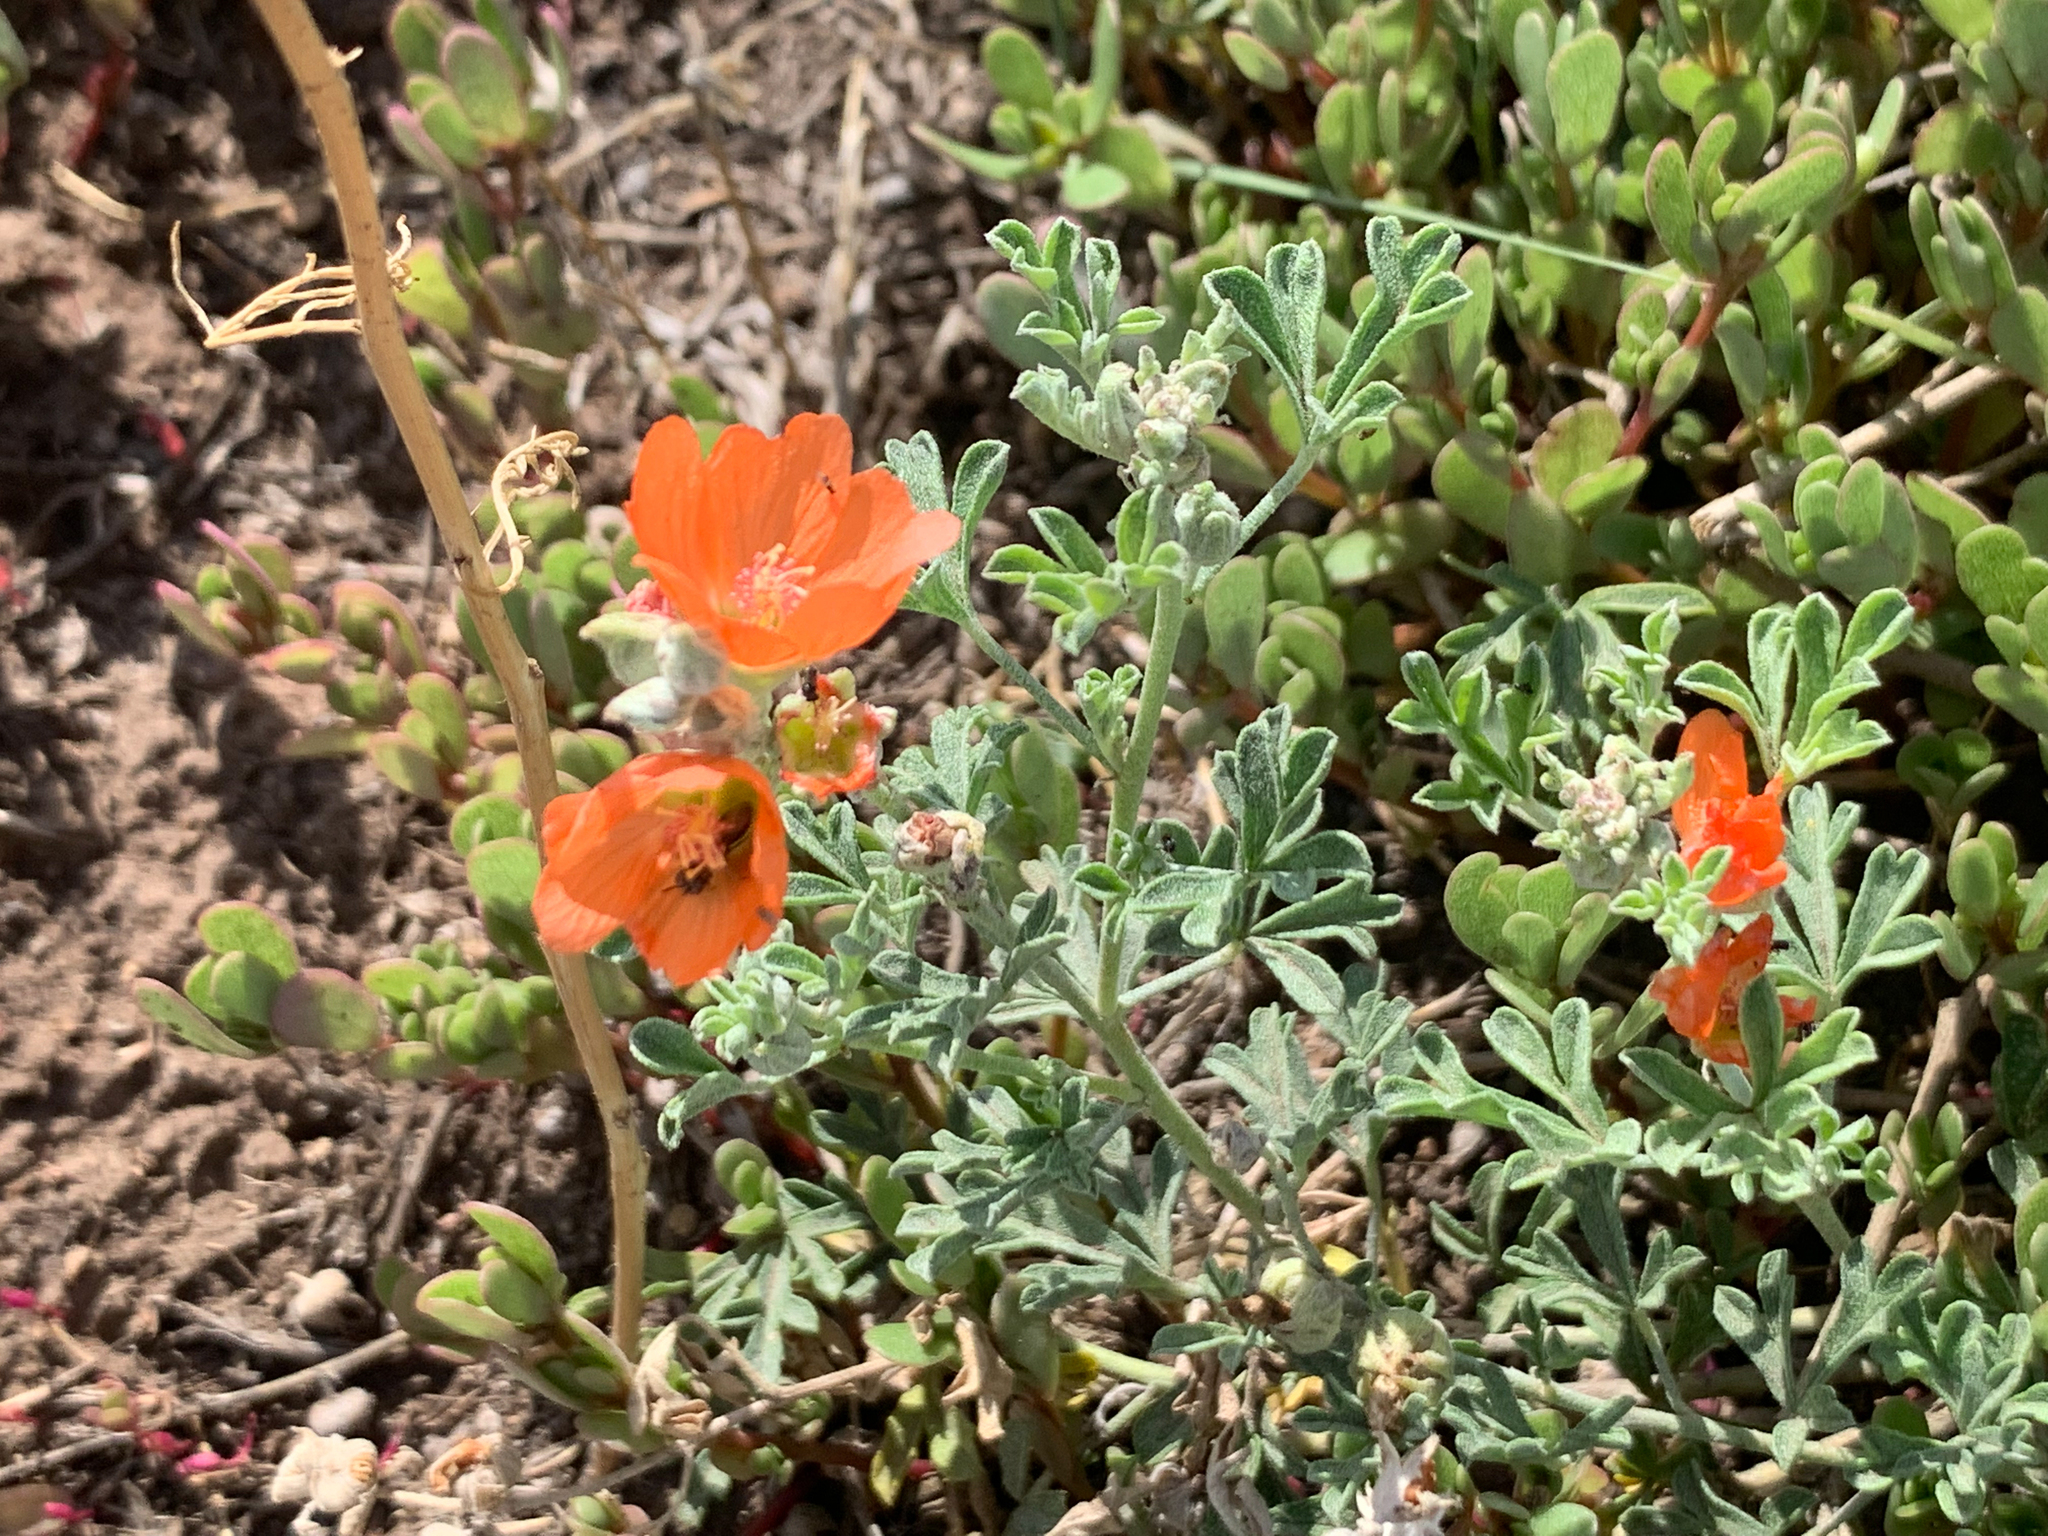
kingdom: Plantae
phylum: Tracheophyta
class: Magnoliopsida
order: Malvales
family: Malvaceae
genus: Sphaeralcea
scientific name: Sphaeralcea coccinea
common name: Moss-rose
